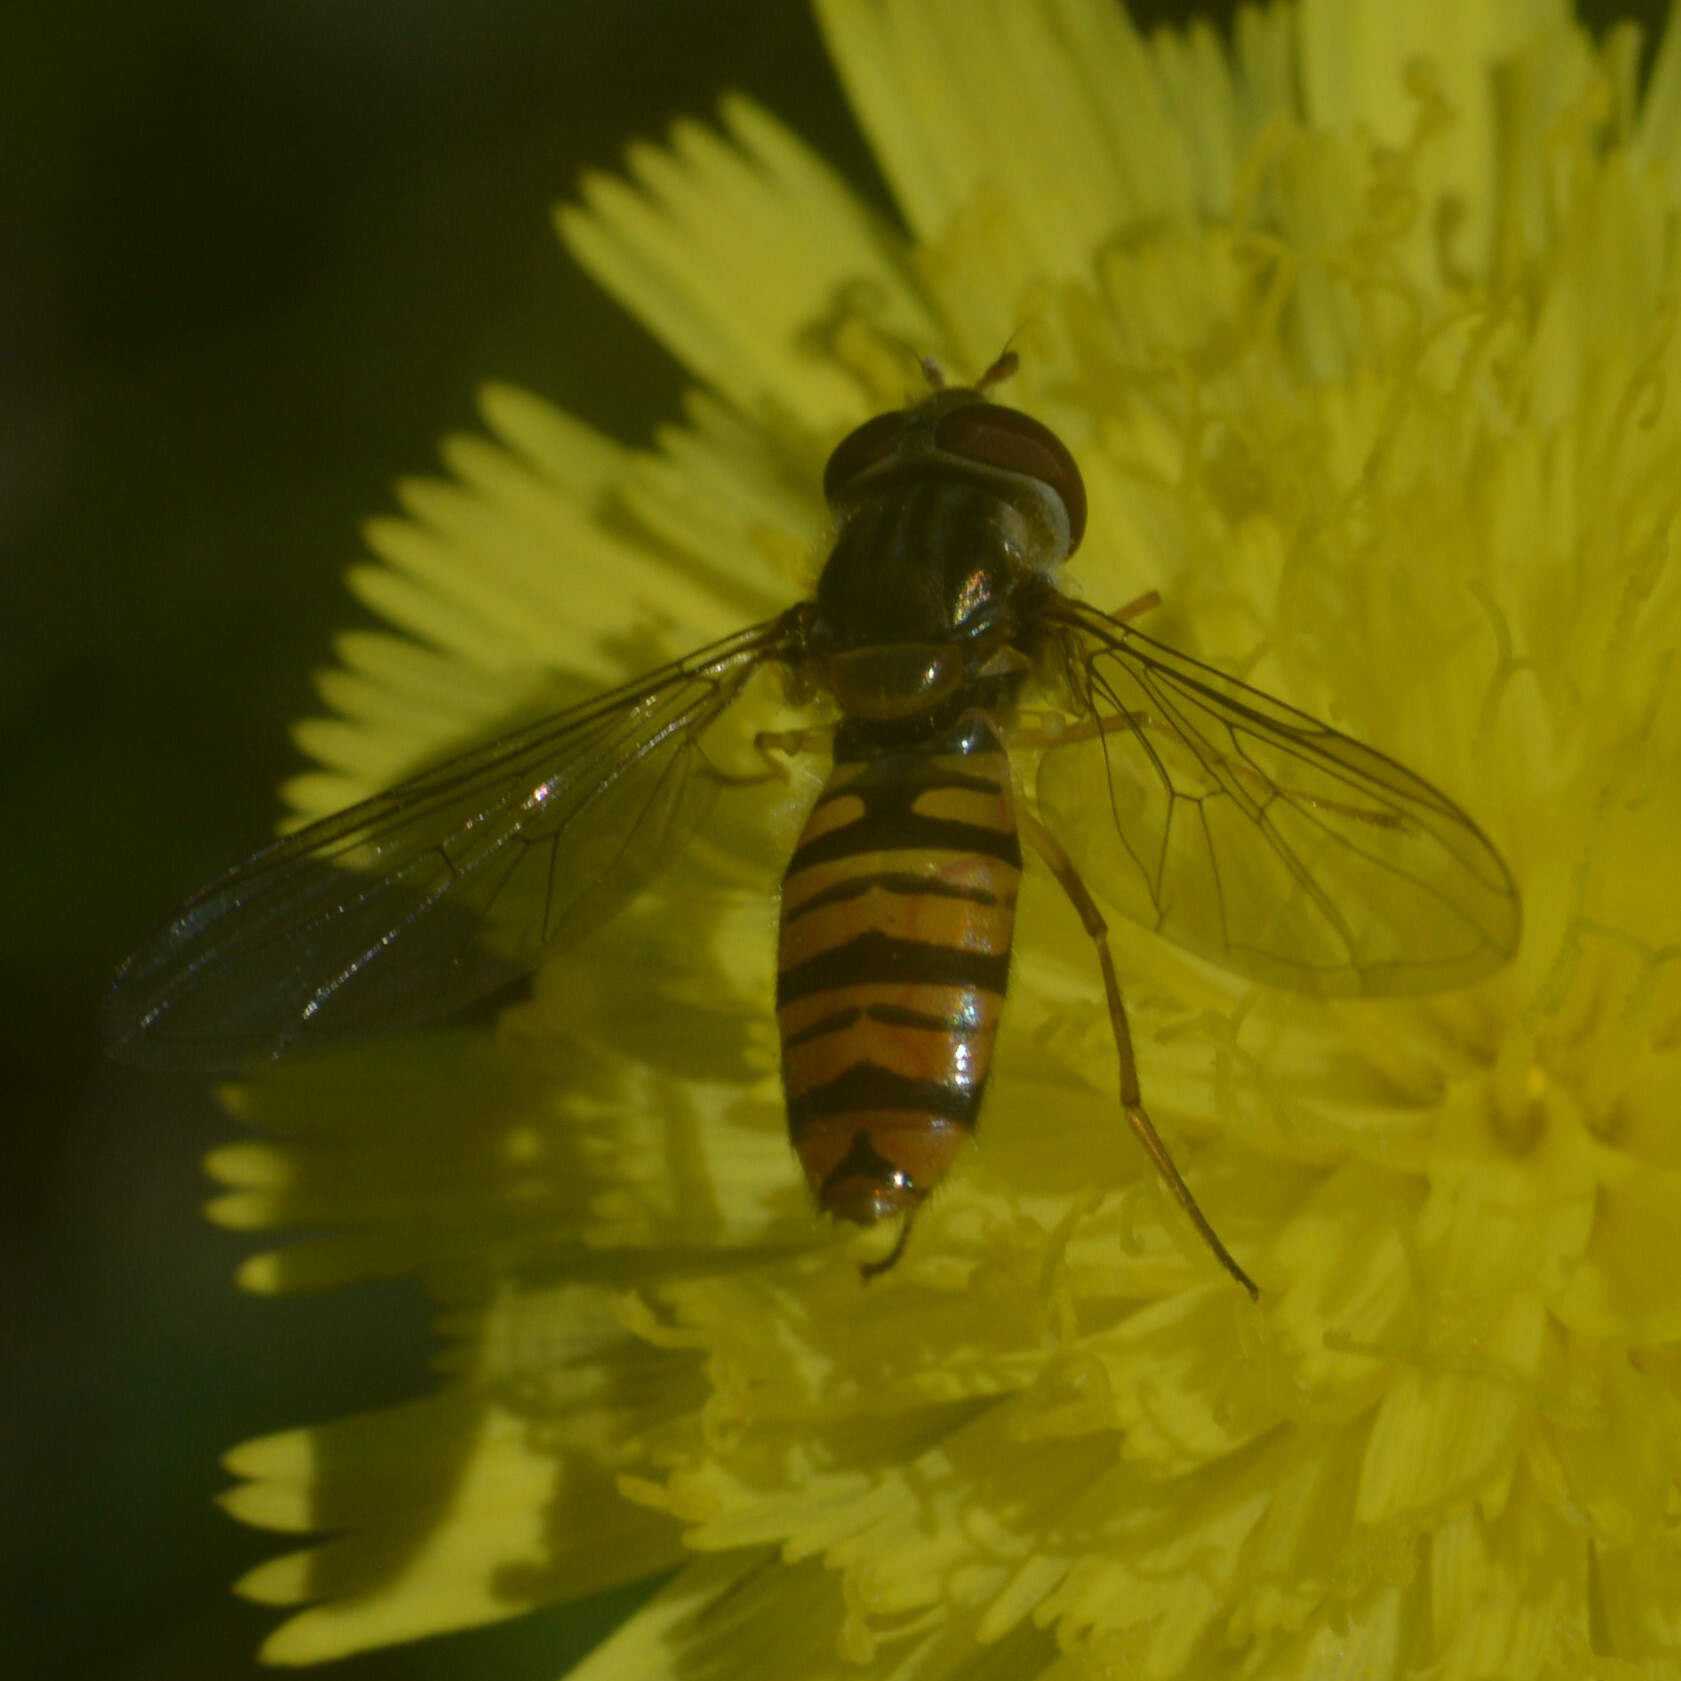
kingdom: Animalia
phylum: Arthropoda
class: Insecta
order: Diptera
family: Syrphidae
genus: Episyrphus
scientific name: Episyrphus balteatus
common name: Marmalade hoverfly
